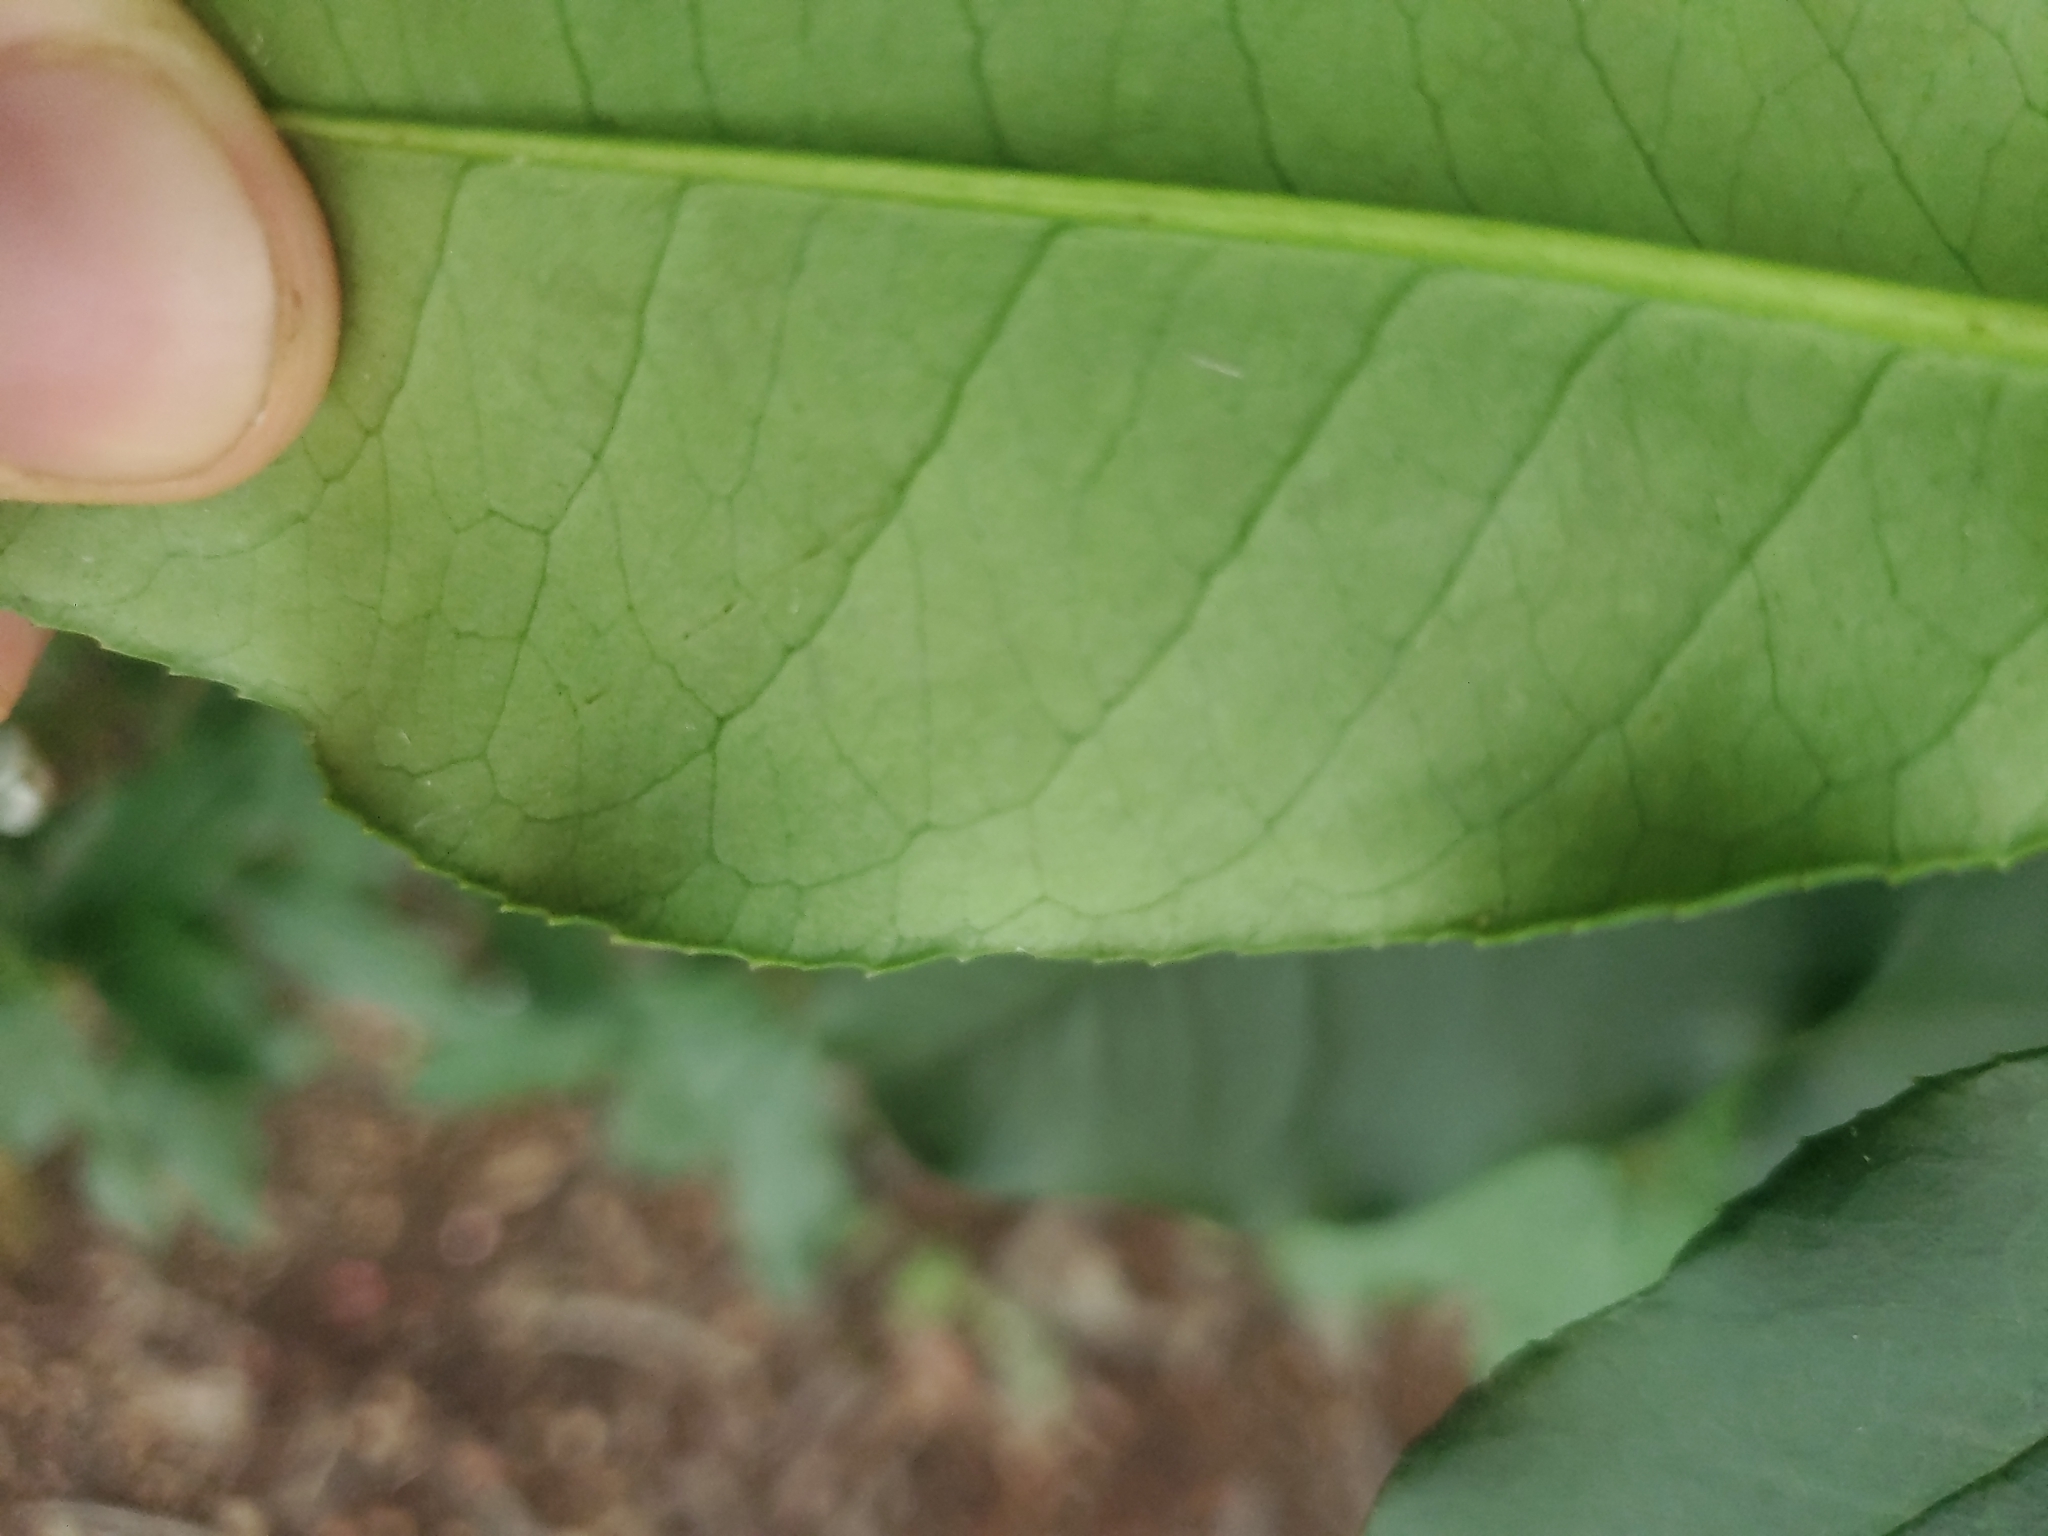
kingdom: Plantae
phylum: Tracheophyta
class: Magnoliopsida
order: Rosales
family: Rosaceae
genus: Photinia
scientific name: Photinia serratifolia
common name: Taiwanese photinia
